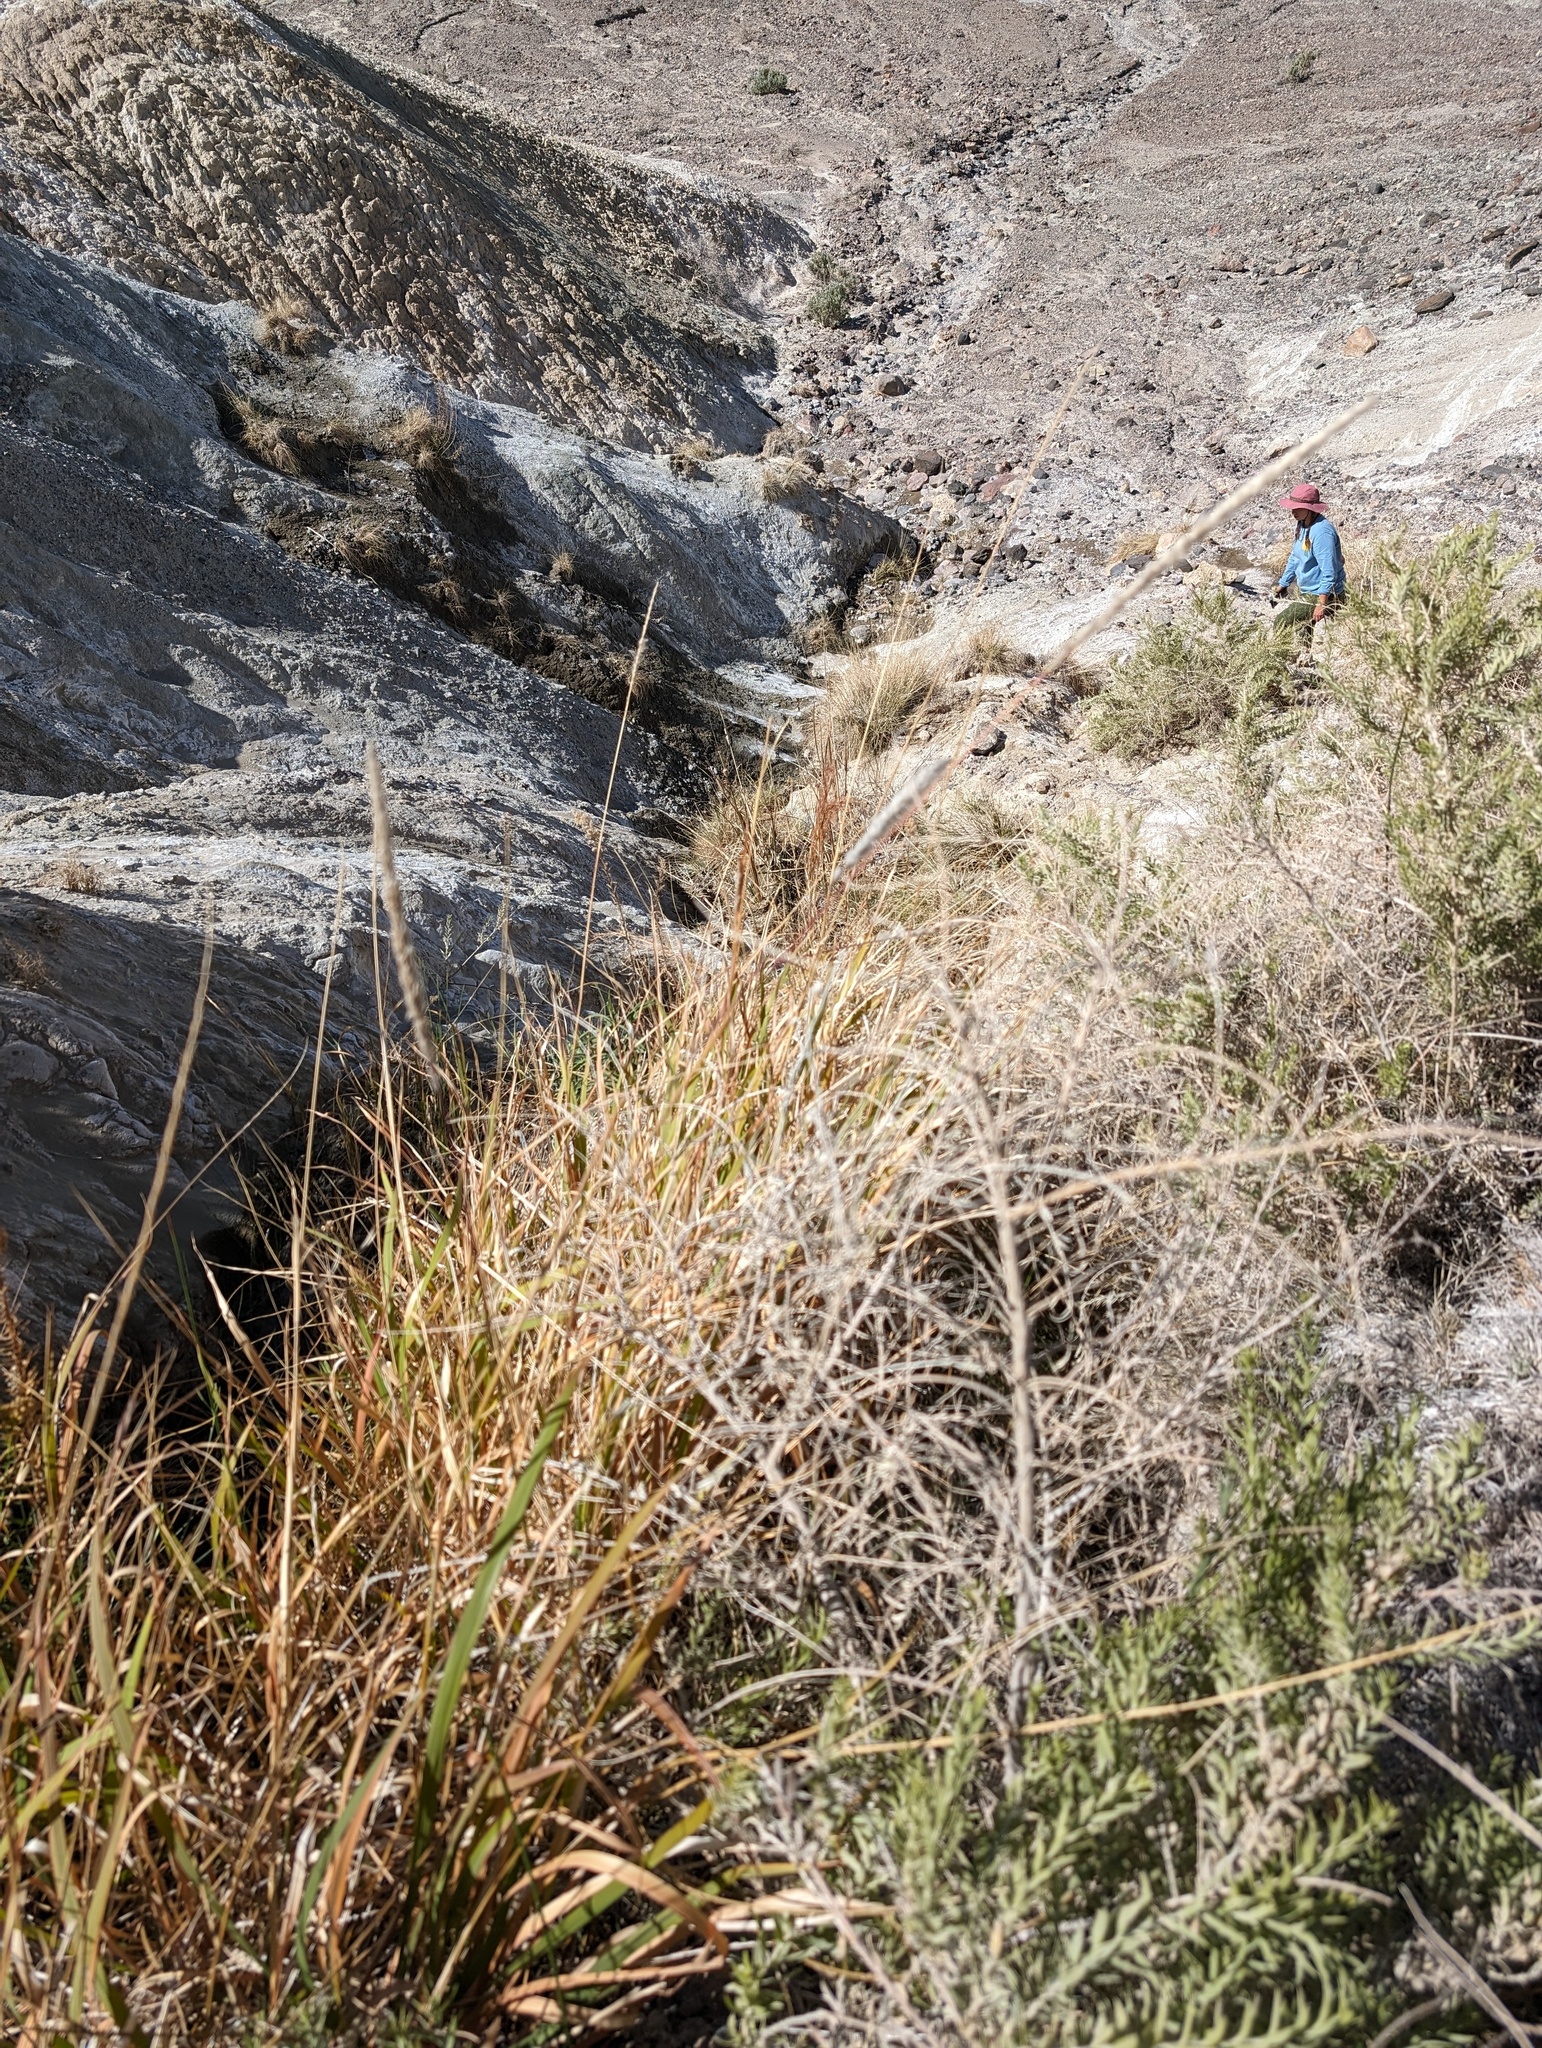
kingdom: Plantae
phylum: Tracheophyta
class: Liliopsida
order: Poales
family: Poaceae
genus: Imperata
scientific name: Imperata brevifolia
